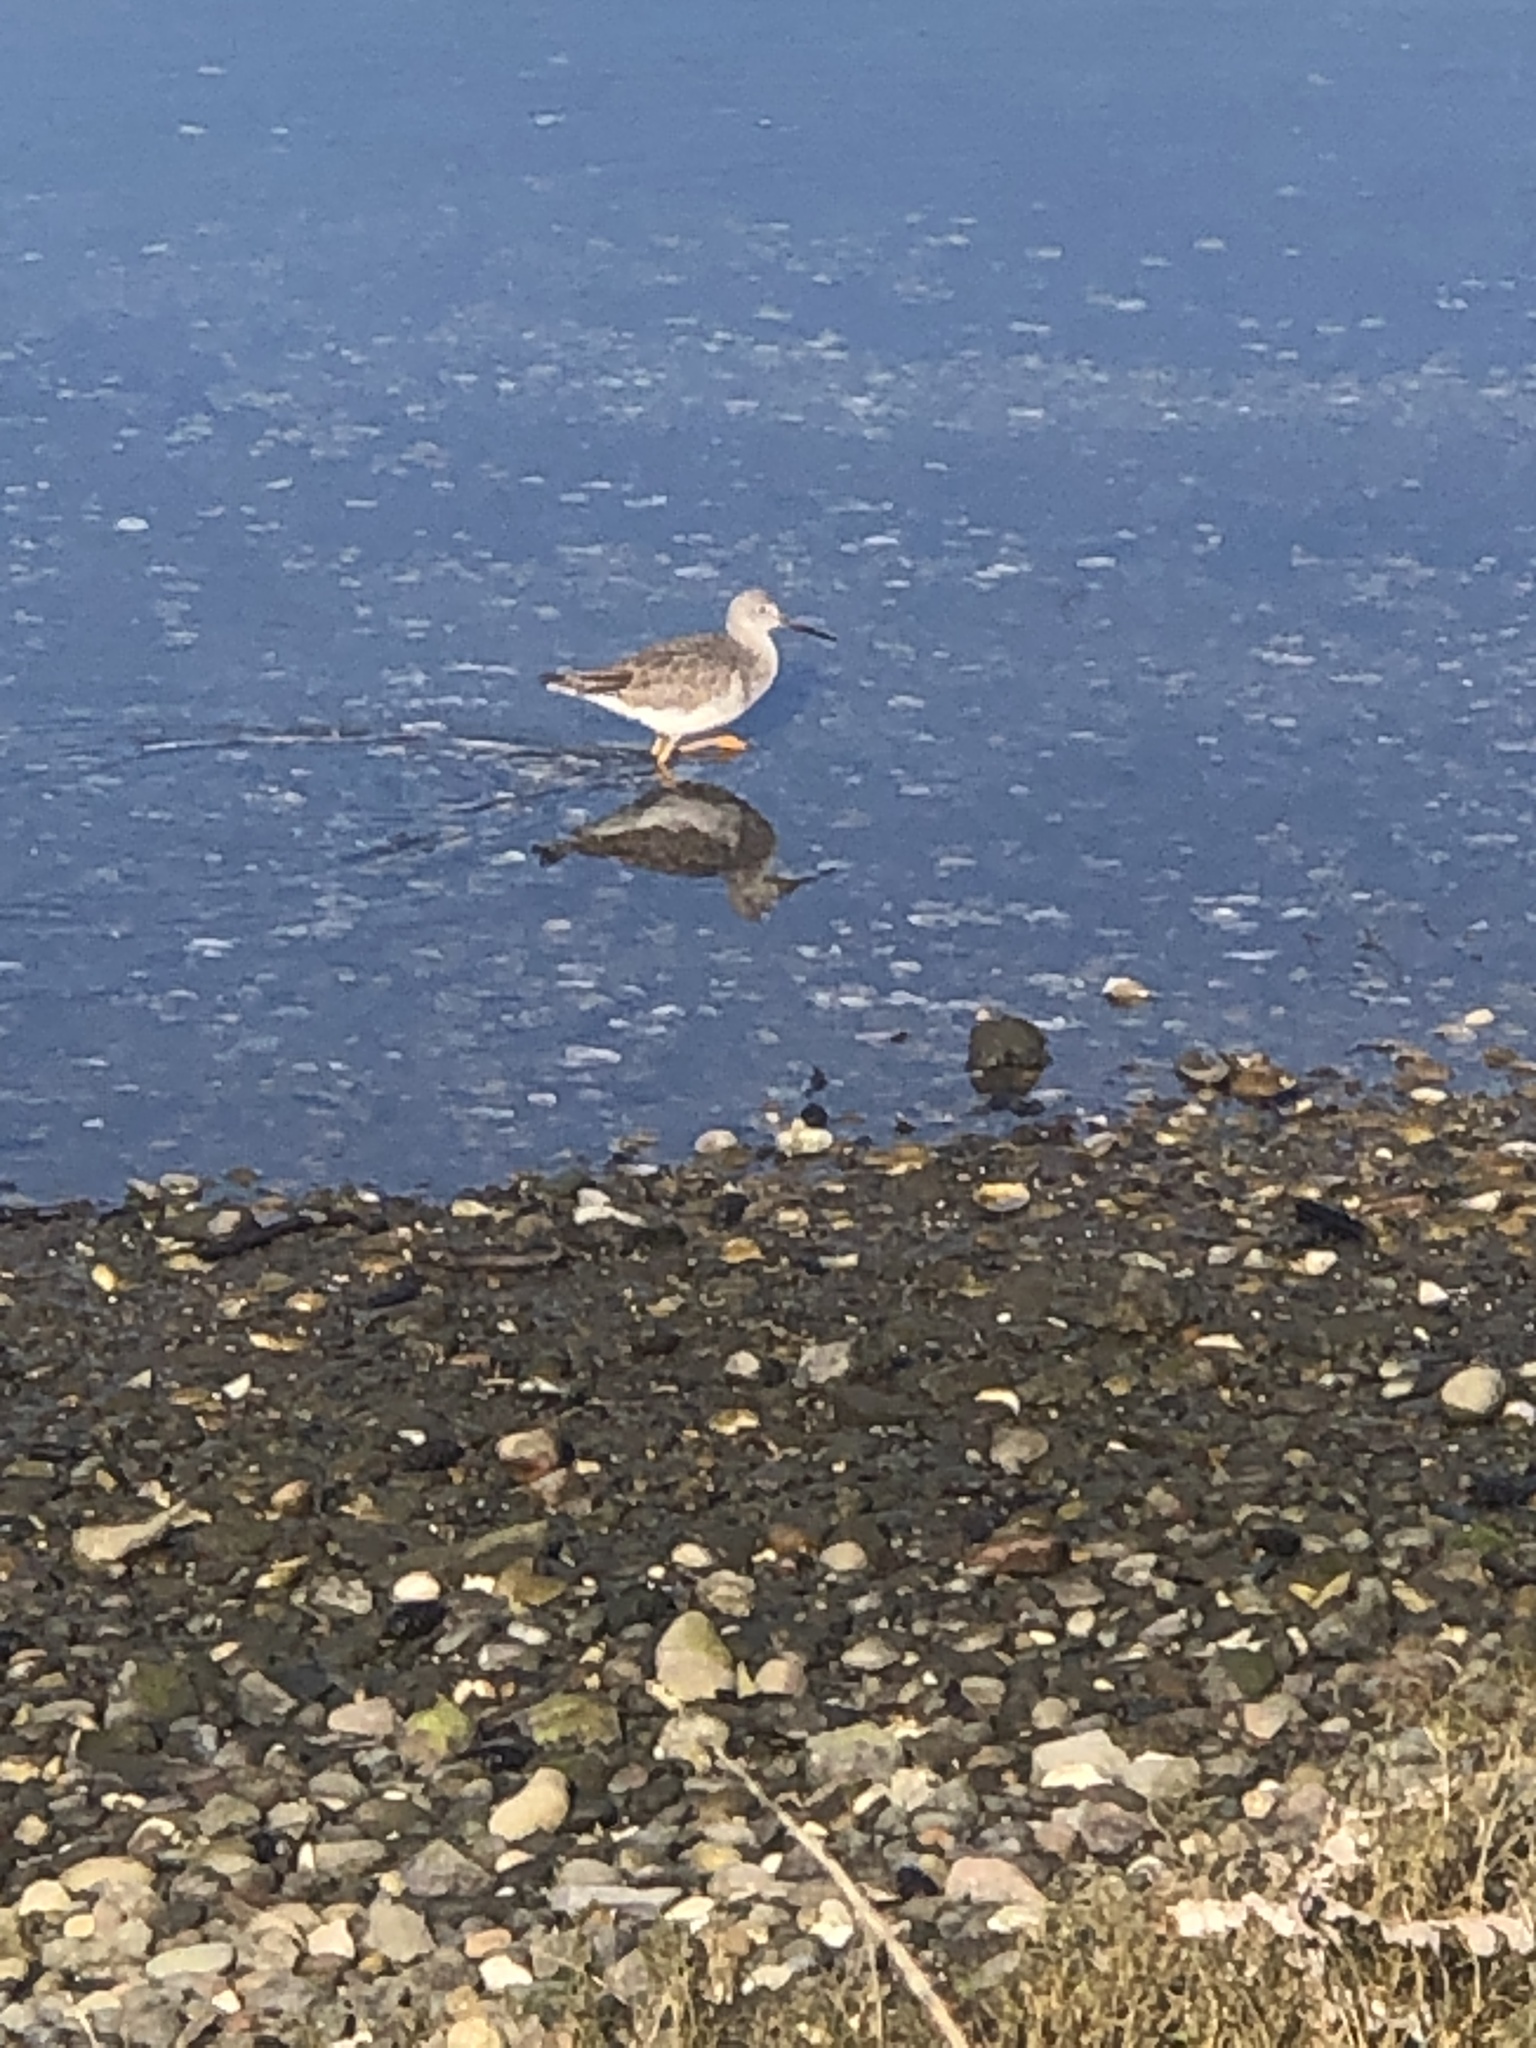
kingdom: Animalia
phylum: Chordata
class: Aves
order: Charadriiformes
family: Scolopacidae
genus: Tringa
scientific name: Tringa melanoleuca
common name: Greater yellowlegs
